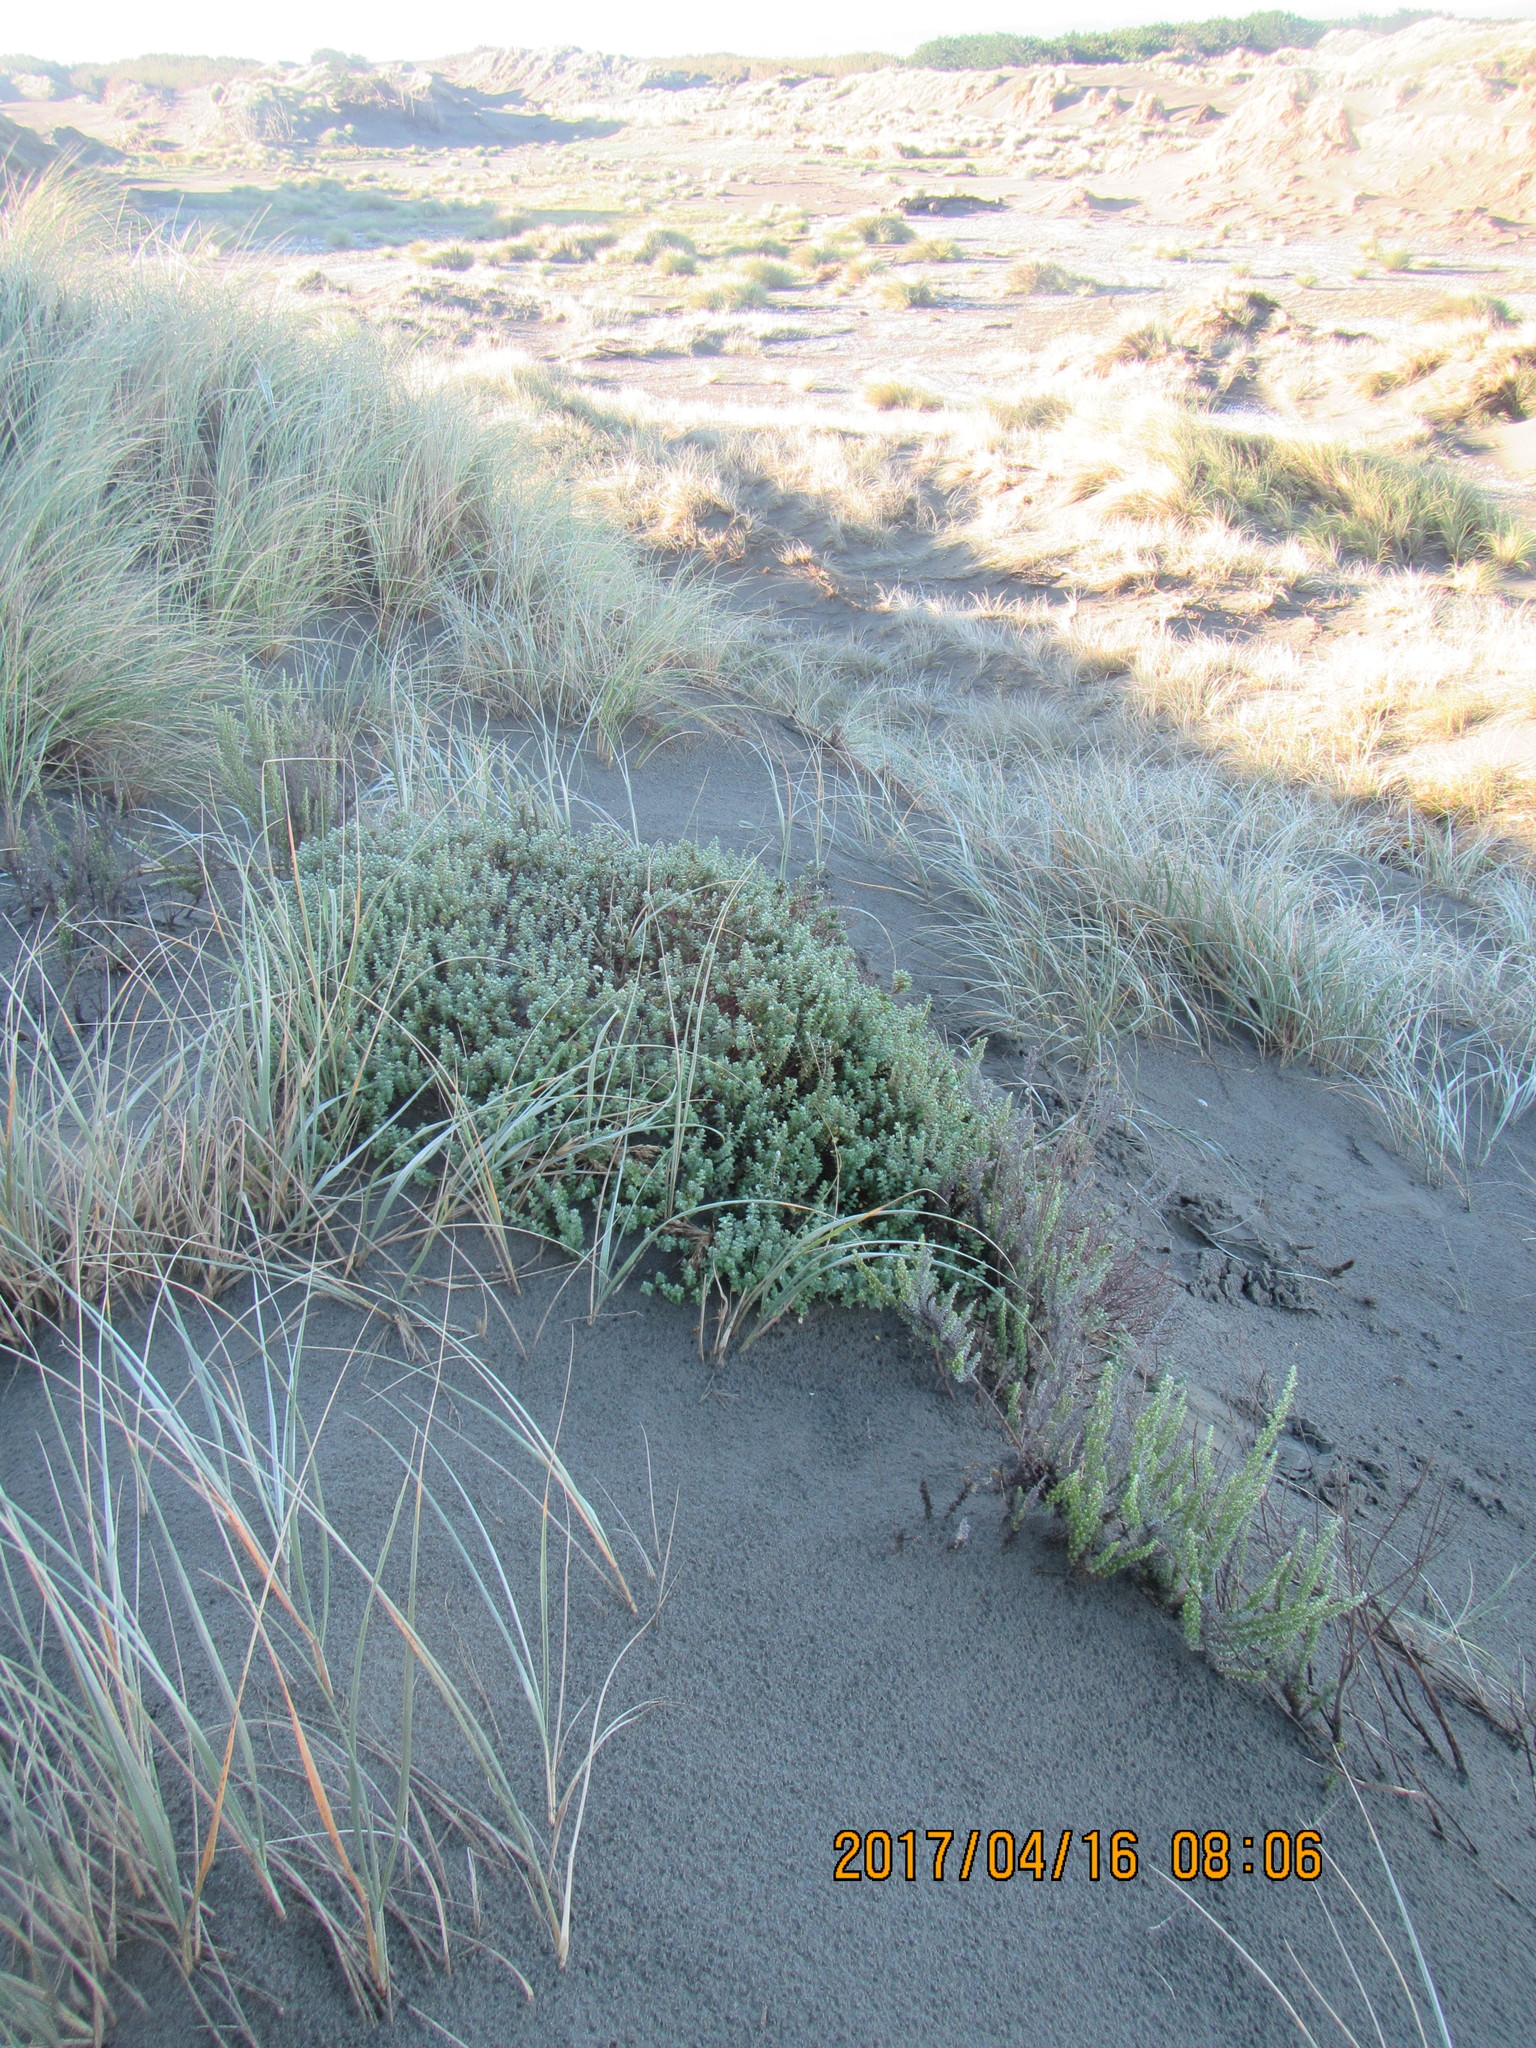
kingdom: Plantae
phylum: Tracheophyta
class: Magnoliopsida
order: Malvales
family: Thymelaeaceae
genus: Pimelea
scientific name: Pimelea villosa
